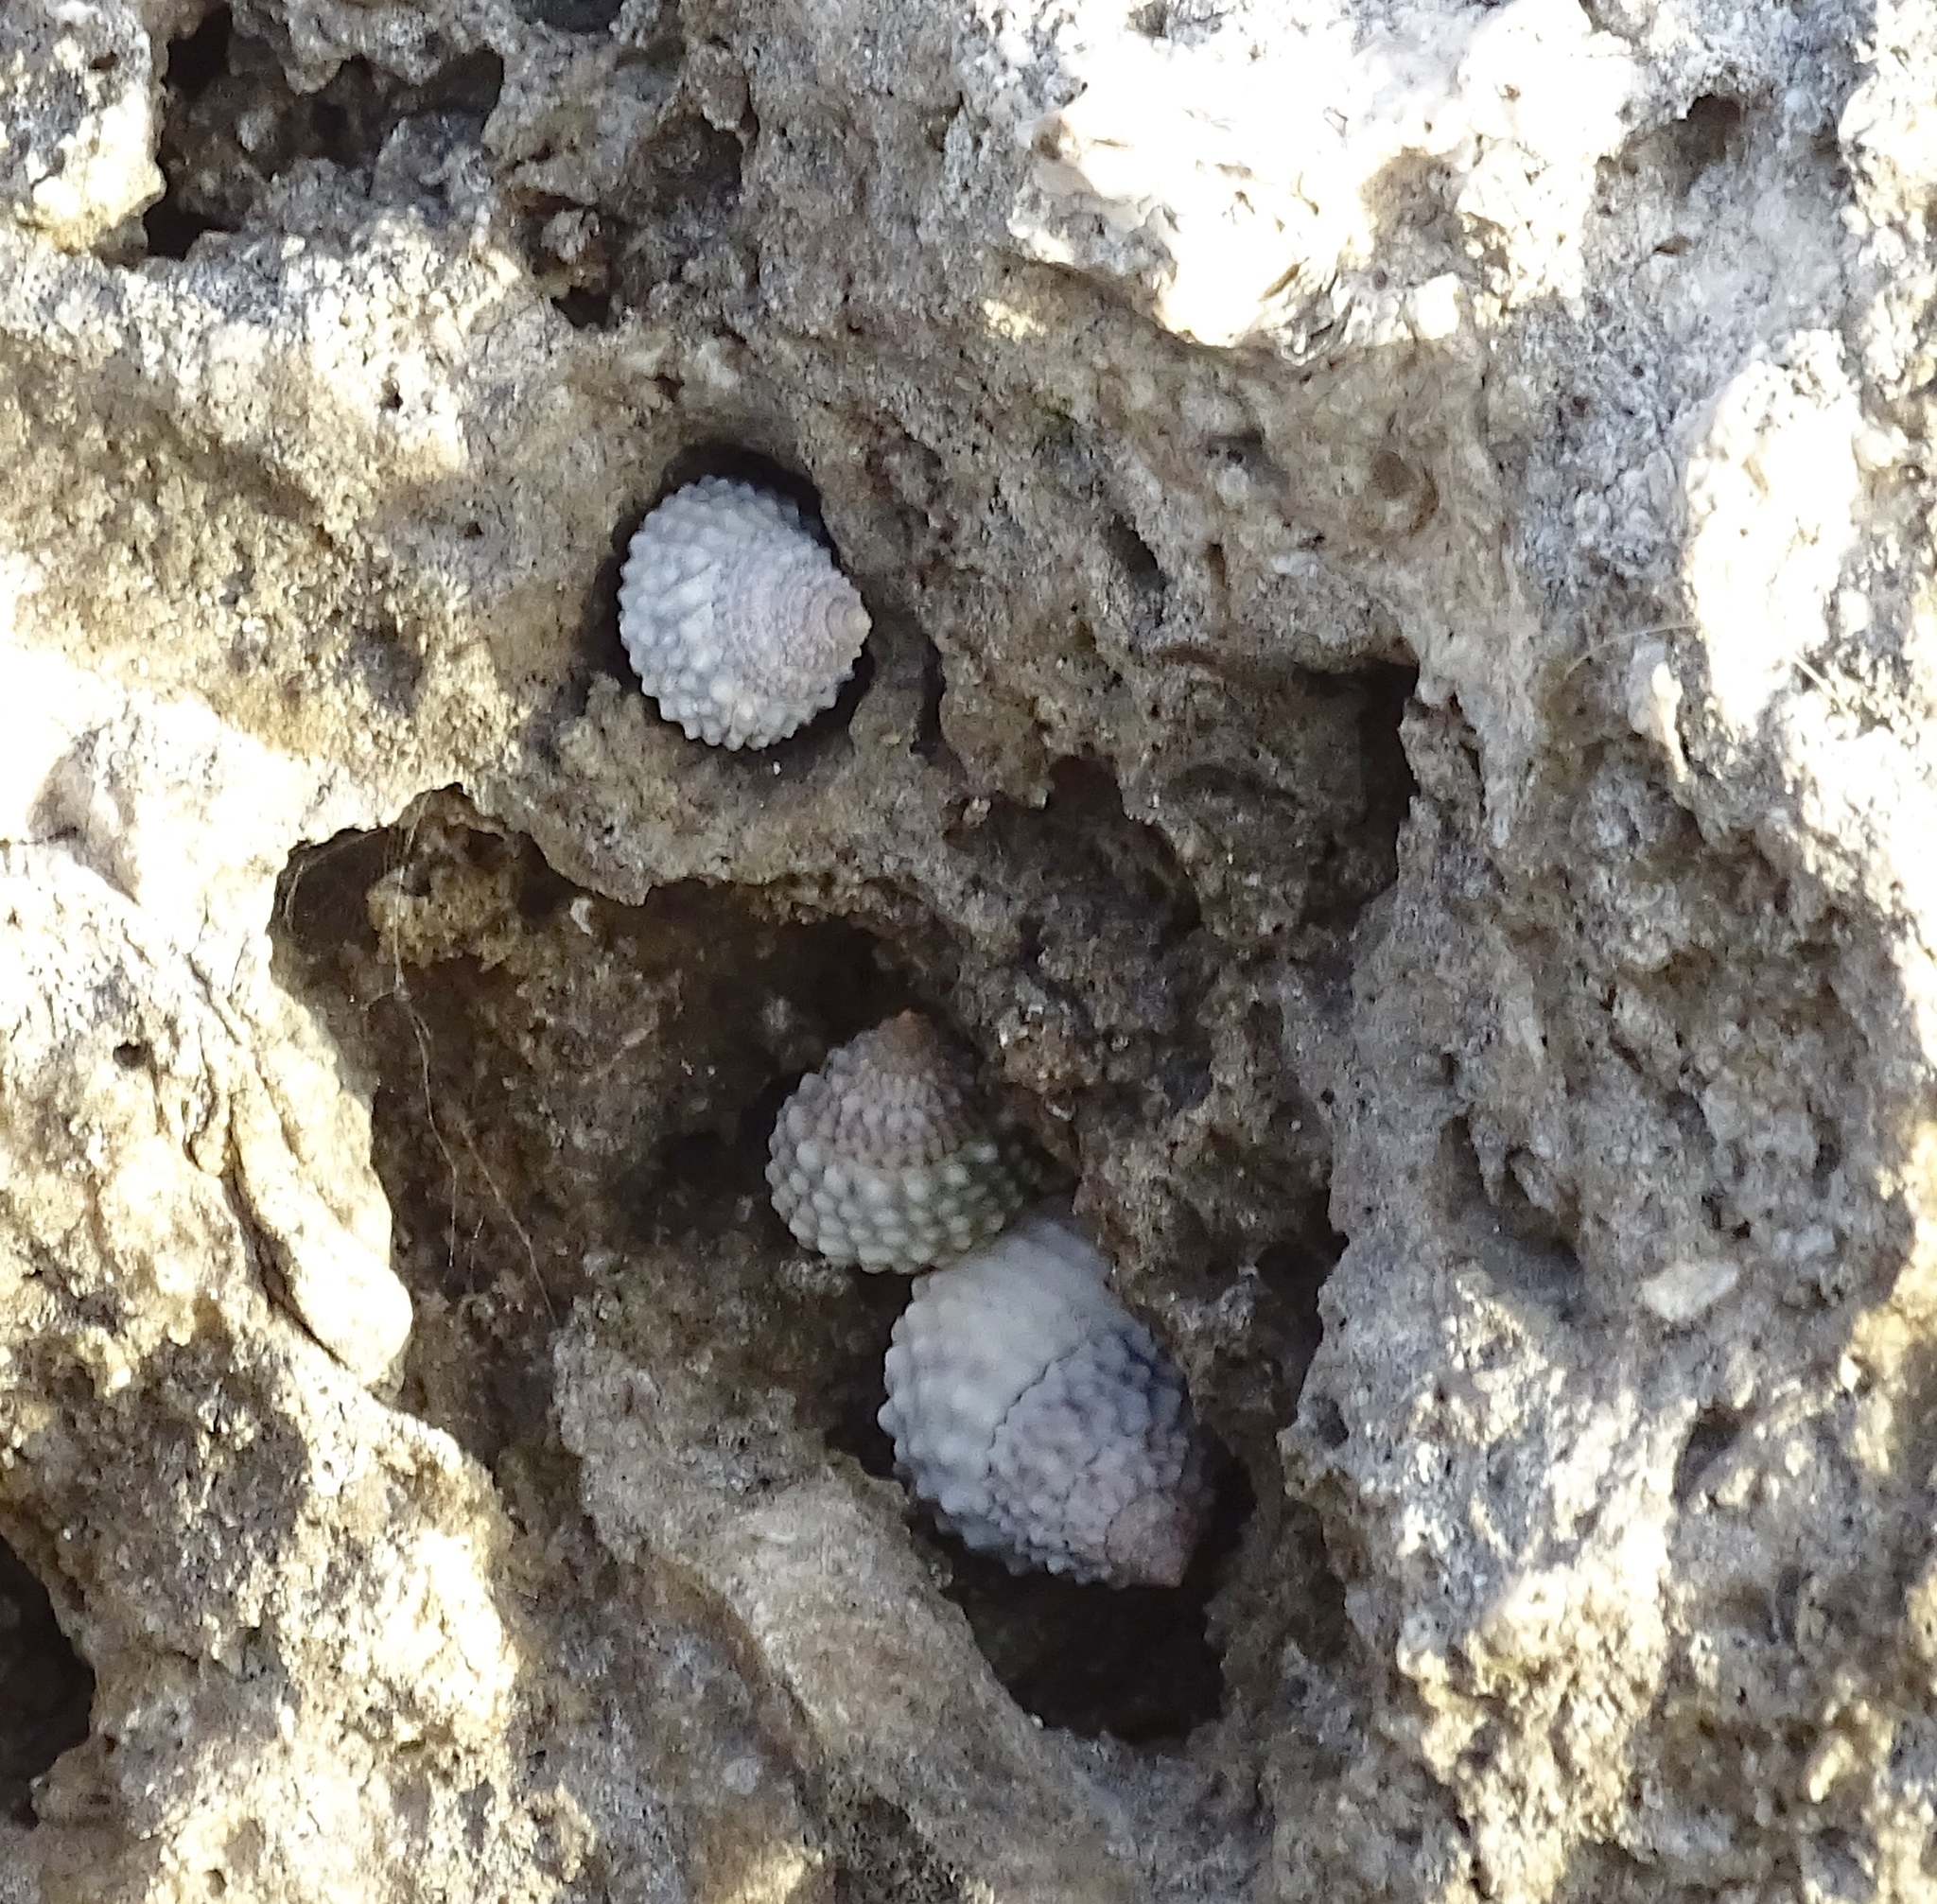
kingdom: Animalia
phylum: Mollusca
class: Gastropoda
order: Littorinimorpha
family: Littorinidae
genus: Cenchritis
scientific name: Cenchritis muricatus
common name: Beaded periwinkle
